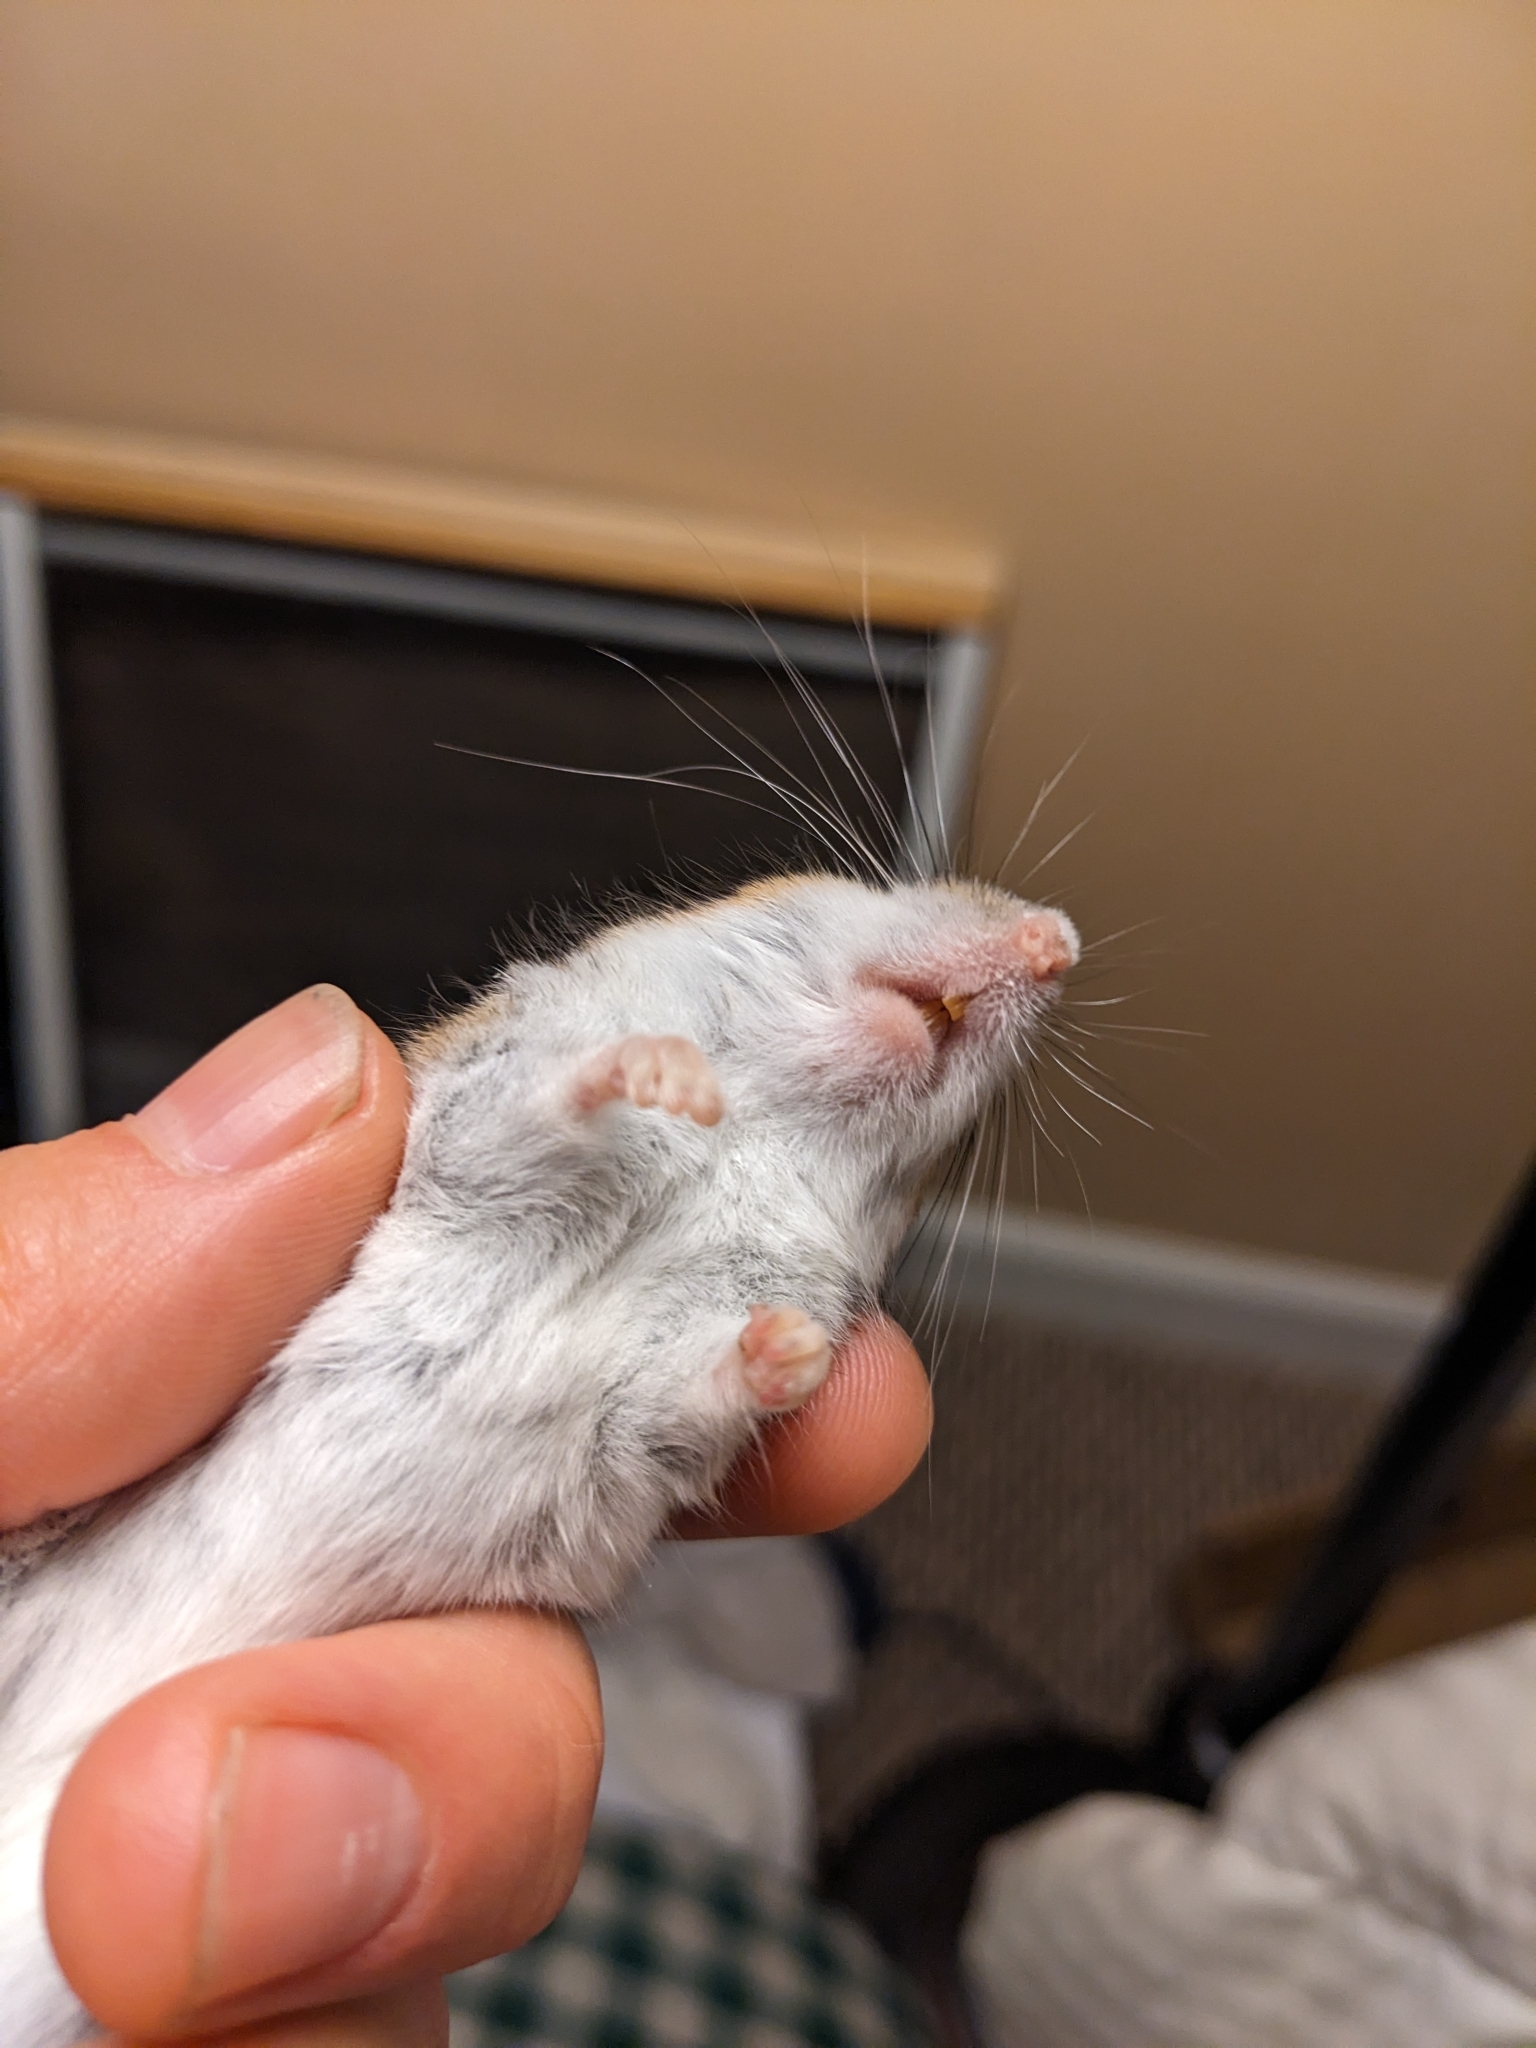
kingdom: Animalia
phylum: Chordata
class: Mammalia
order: Rodentia
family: Cricetidae
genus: Peromyscus
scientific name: Peromyscus maniculatus
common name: Deer mouse
